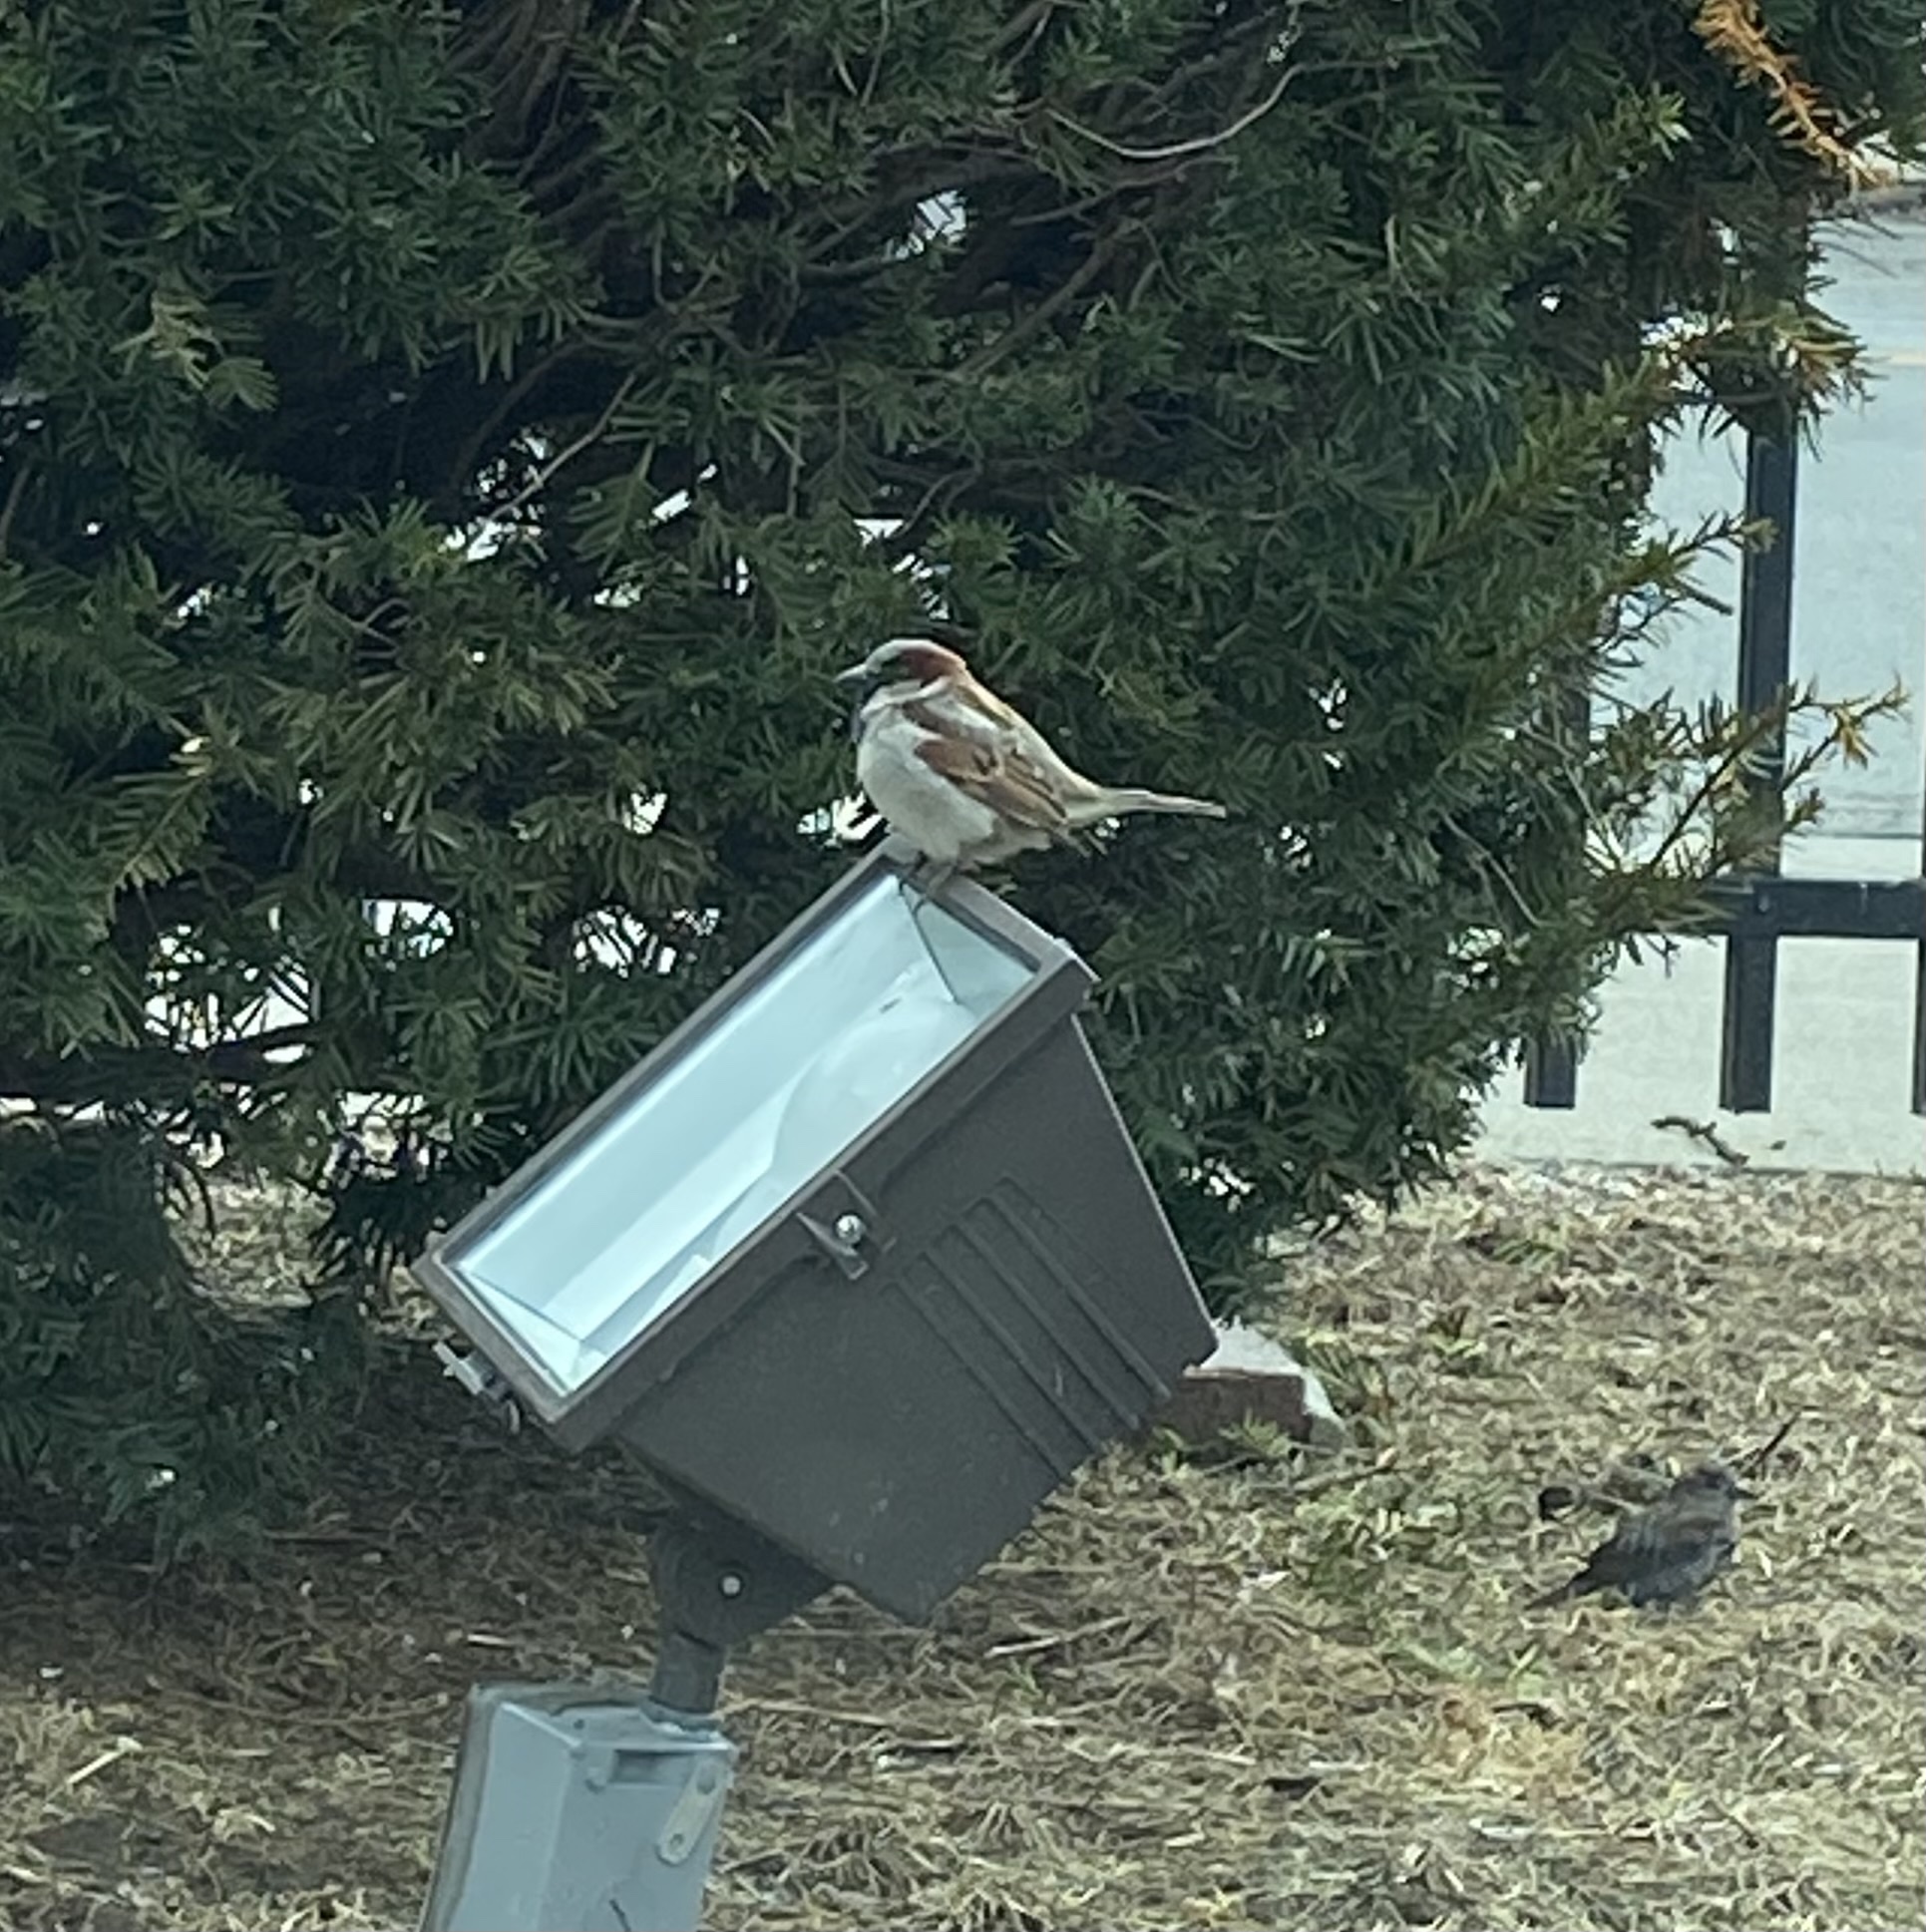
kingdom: Animalia
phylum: Chordata
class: Aves
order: Passeriformes
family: Passeridae
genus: Passer
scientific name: Passer domesticus
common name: House sparrow
